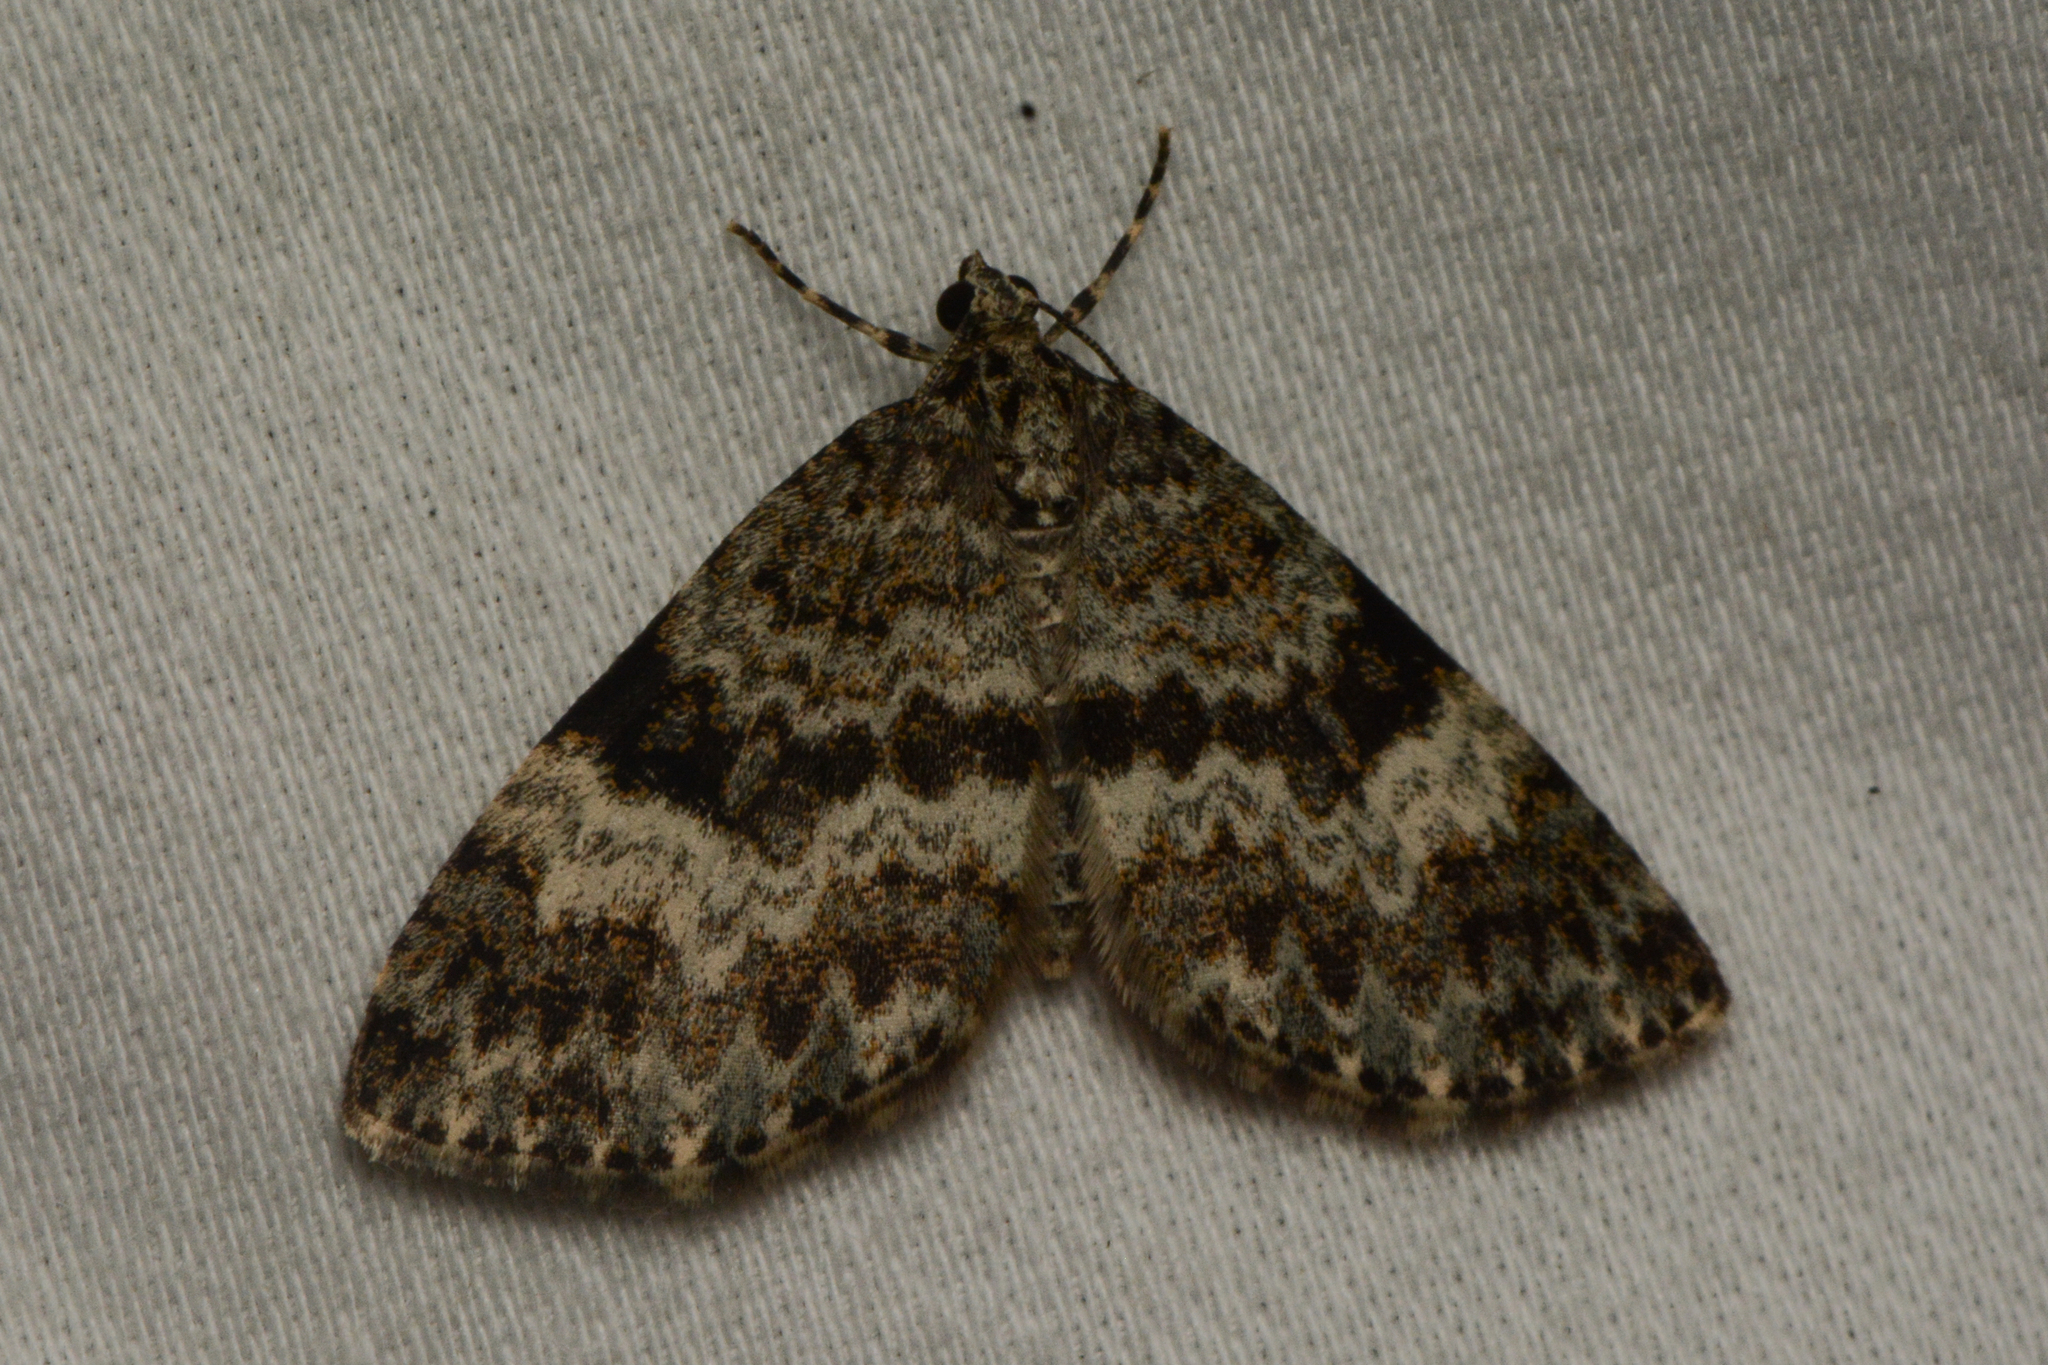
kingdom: Animalia
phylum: Arthropoda
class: Insecta
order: Lepidoptera
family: Geometridae
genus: Spargania
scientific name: Spargania magnoliata
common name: Double-banded carpet
